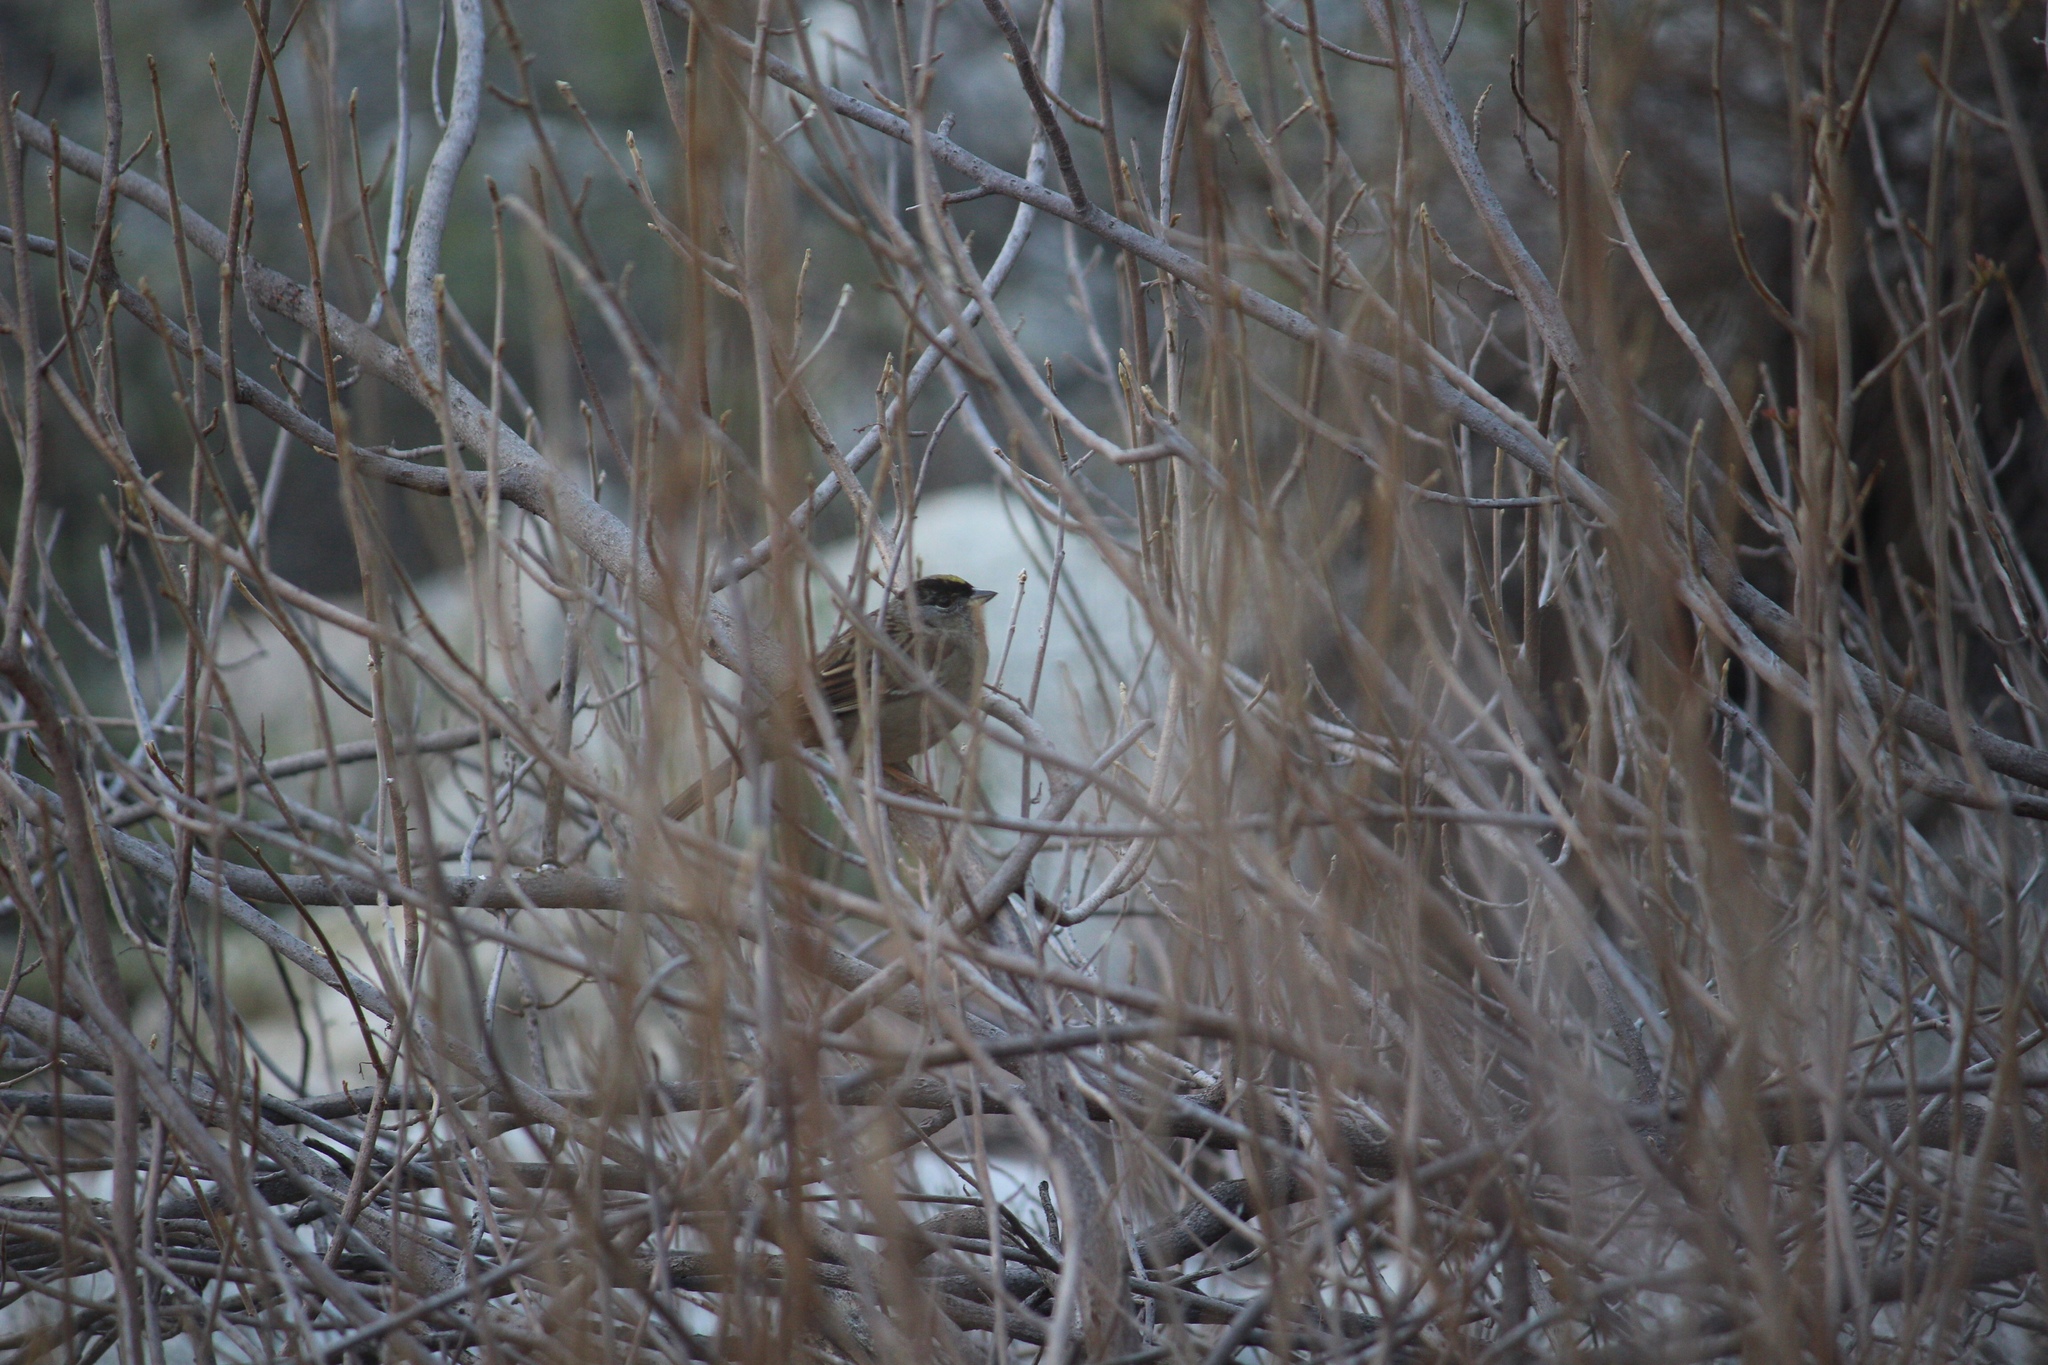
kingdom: Animalia
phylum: Chordata
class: Aves
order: Passeriformes
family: Passerellidae
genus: Zonotrichia
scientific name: Zonotrichia atricapilla
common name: Golden-crowned sparrow
